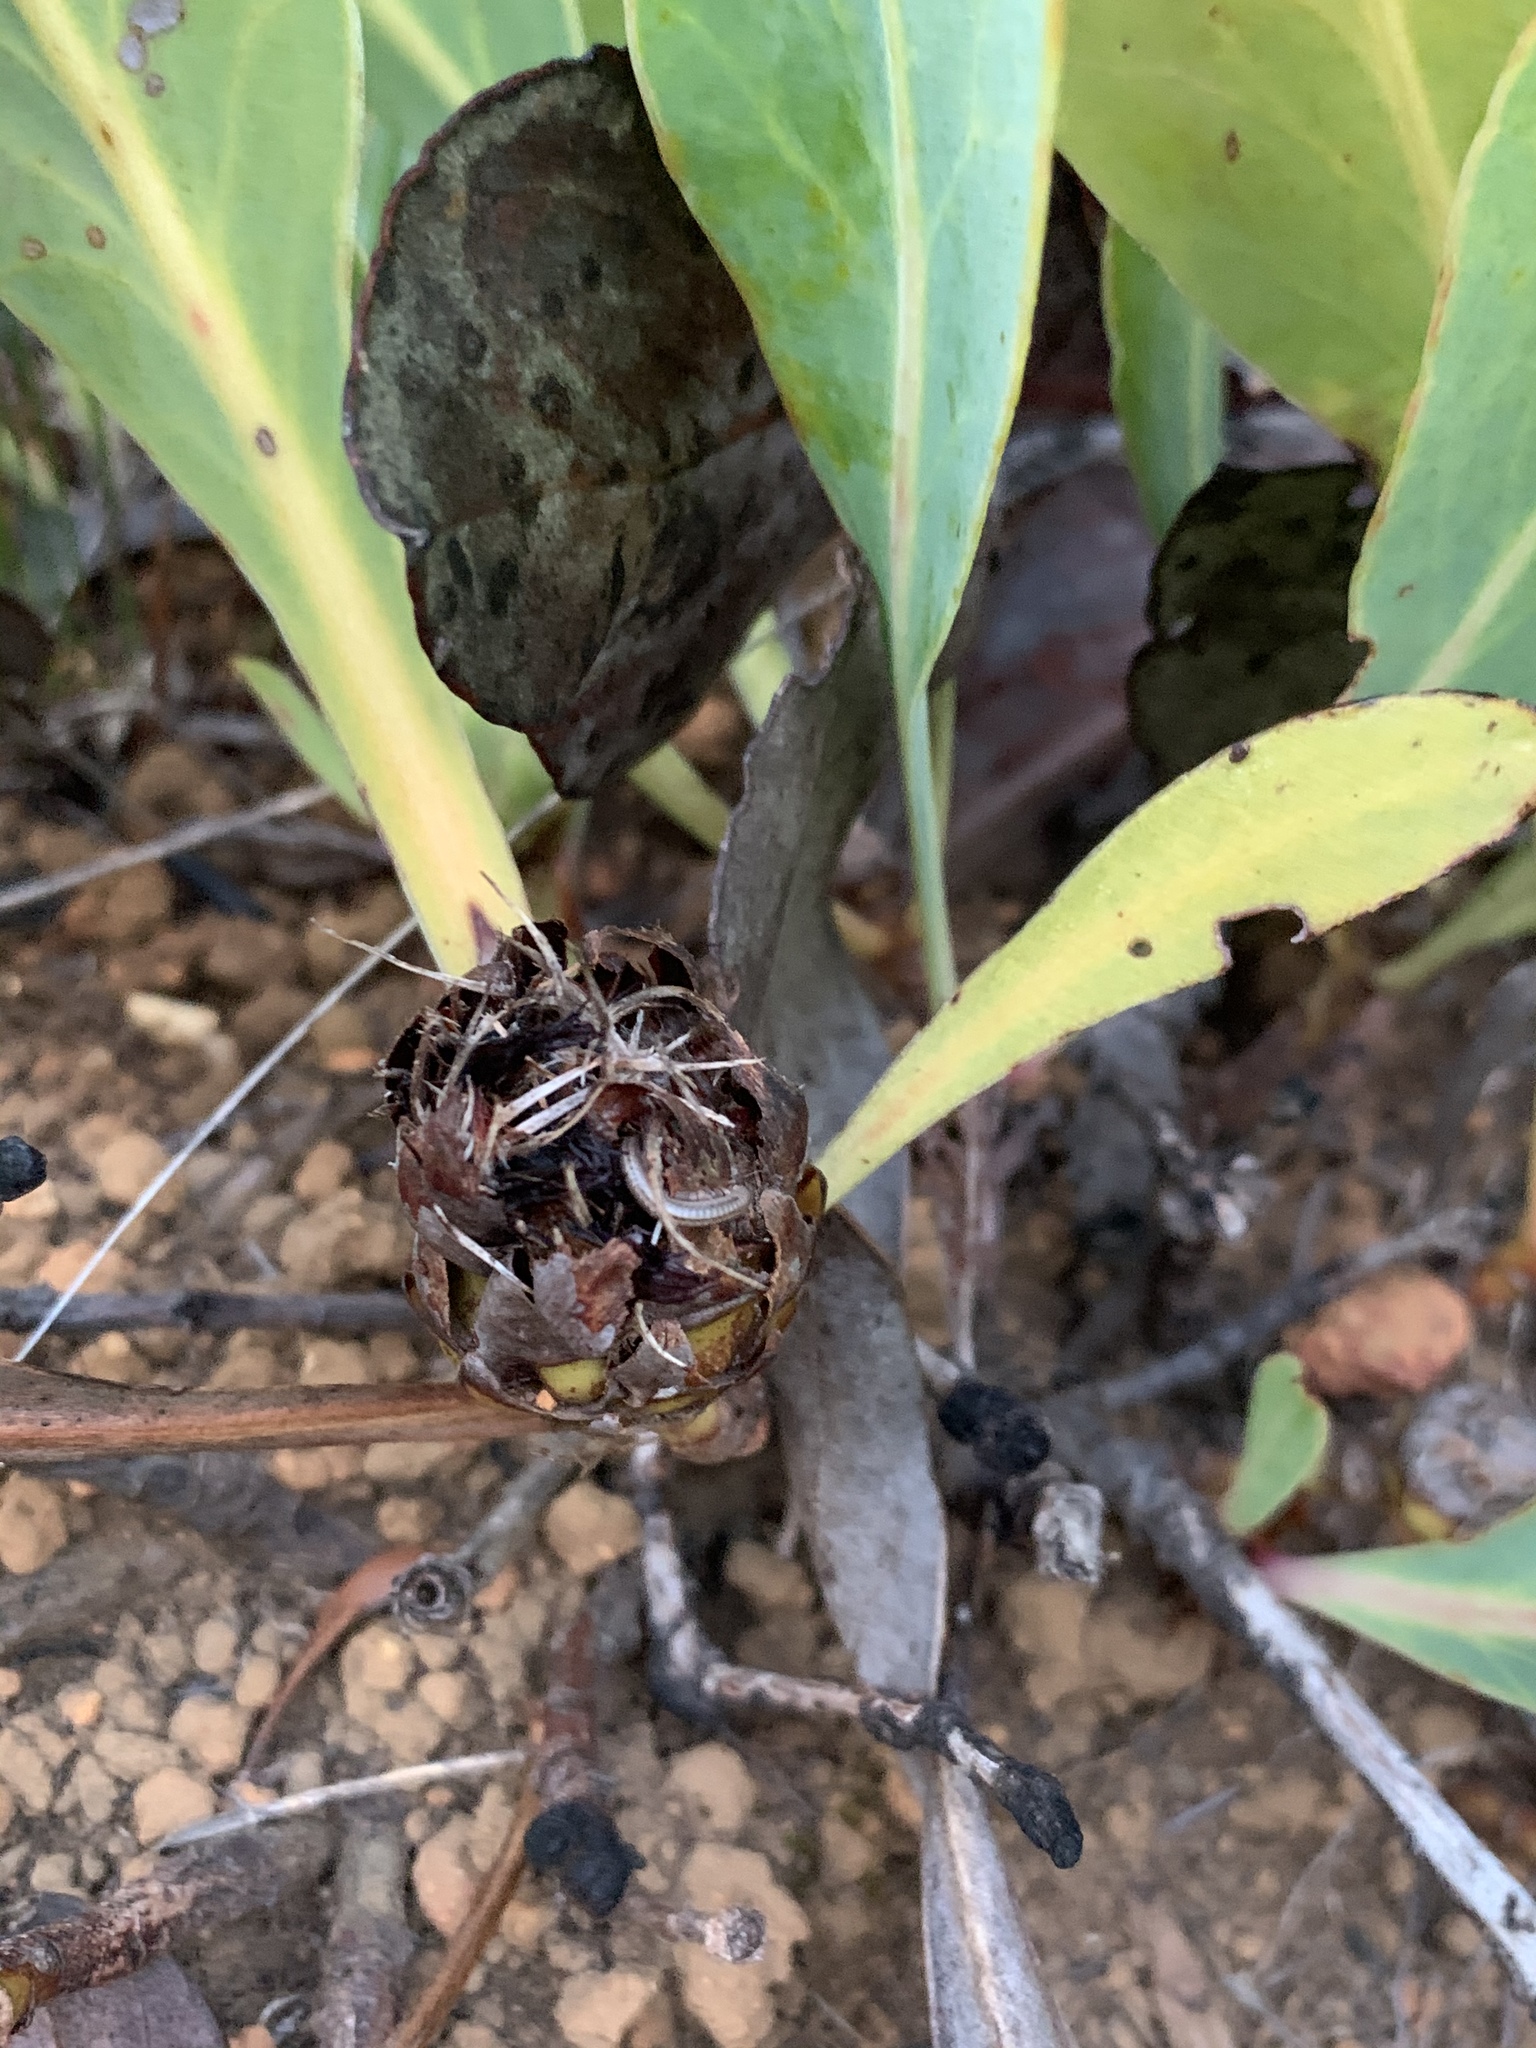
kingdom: Plantae
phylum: Tracheophyta
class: Magnoliopsida
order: Proteales
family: Proteaceae
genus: Protea
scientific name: Protea acaulos
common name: Common ground sugarbush
